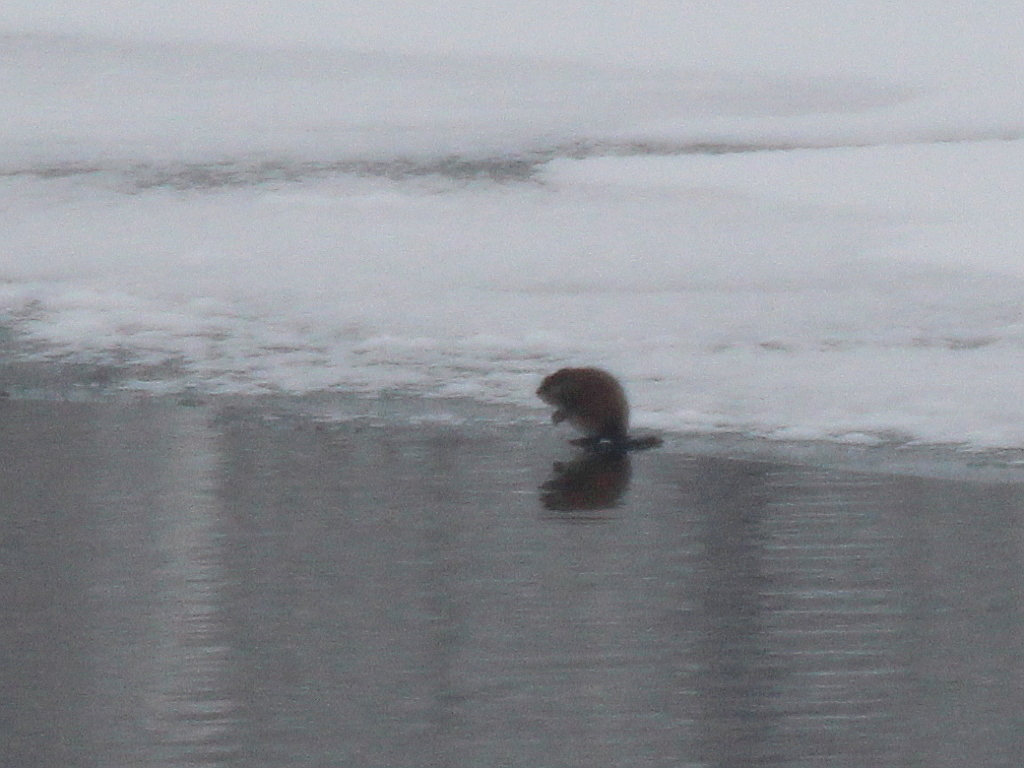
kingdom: Animalia
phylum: Chordata
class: Mammalia
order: Rodentia
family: Cricetidae
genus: Ondatra
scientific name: Ondatra zibethicus
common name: Muskrat
